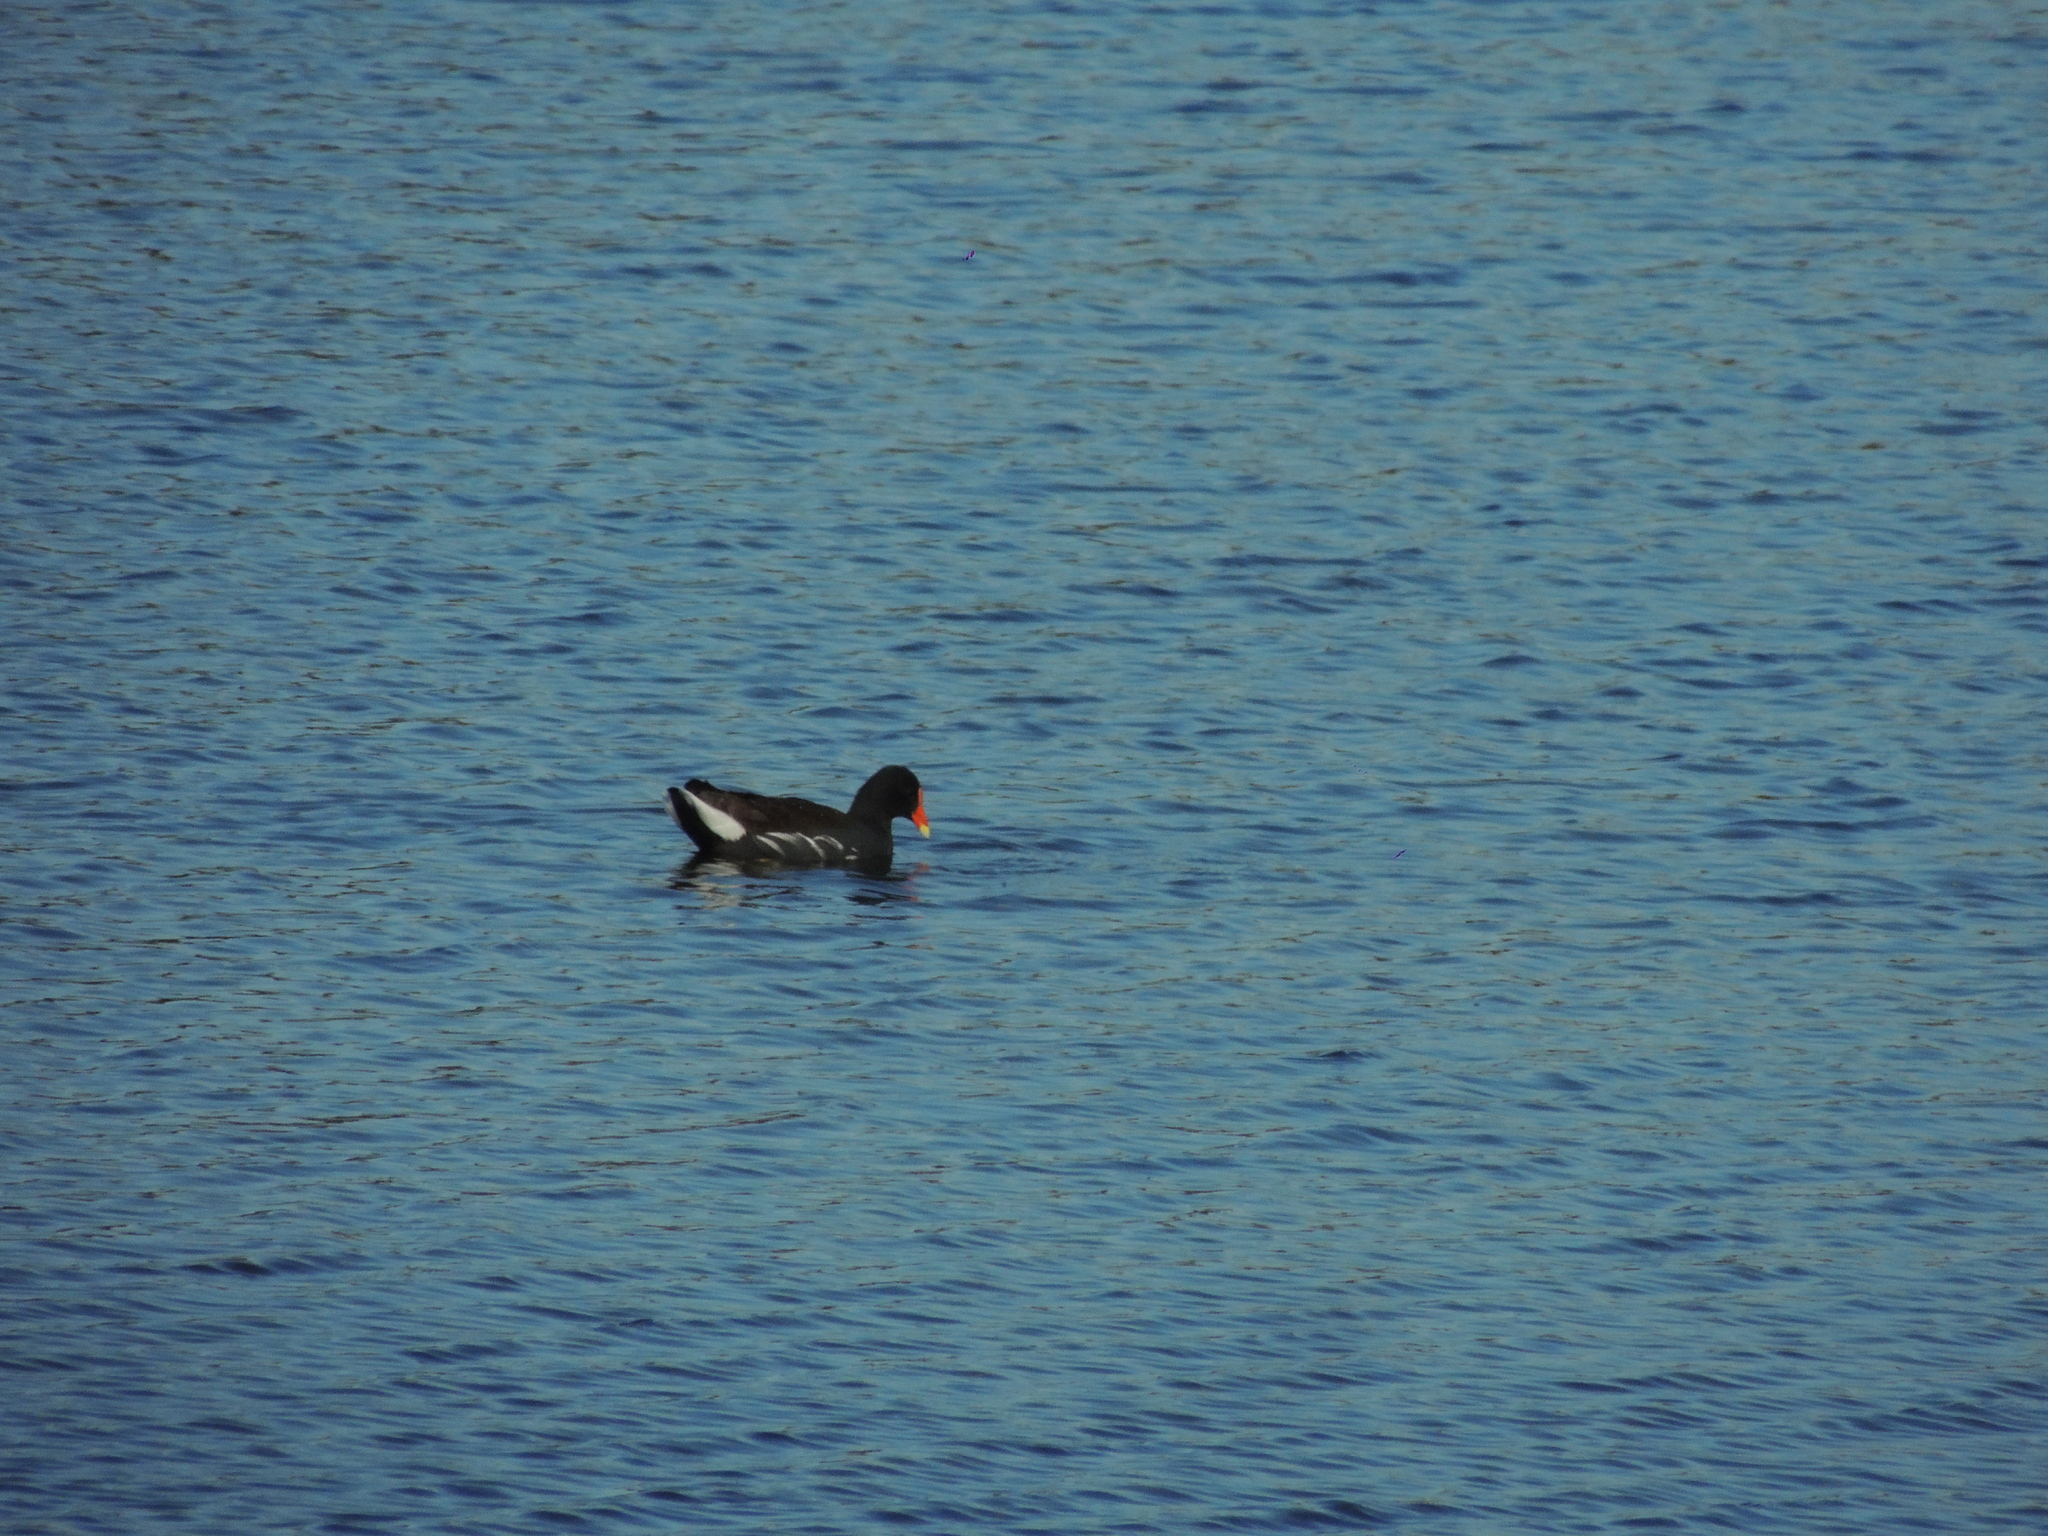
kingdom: Animalia
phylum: Chordata
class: Aves
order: Gruiformes
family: Rallidae
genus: Gallinula
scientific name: Gallinula chloropus
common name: Common moorhen
